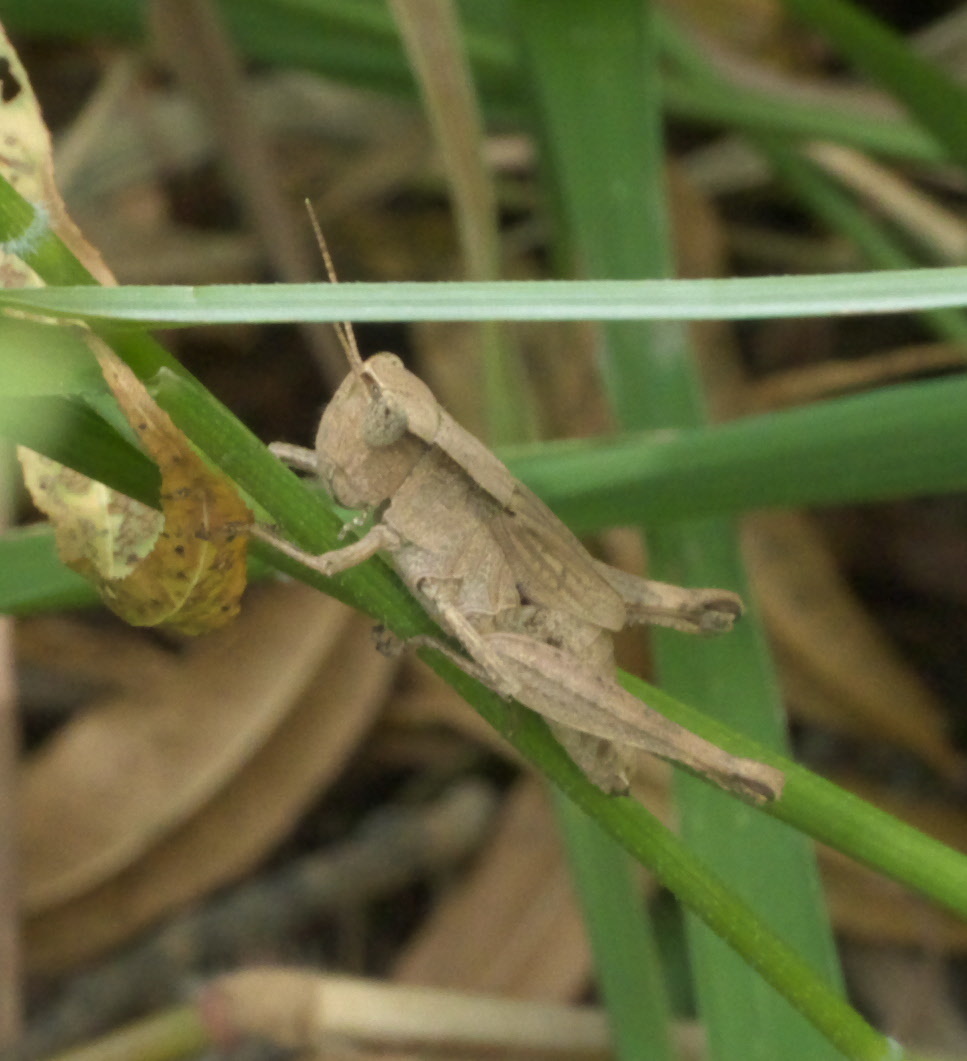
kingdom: Animalia
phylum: Arthropoda
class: Insecta
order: Orthoptera
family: Acrididae
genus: Dichromorpha
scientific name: Dichromorpha viridis
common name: Short-winged green grasshopper
